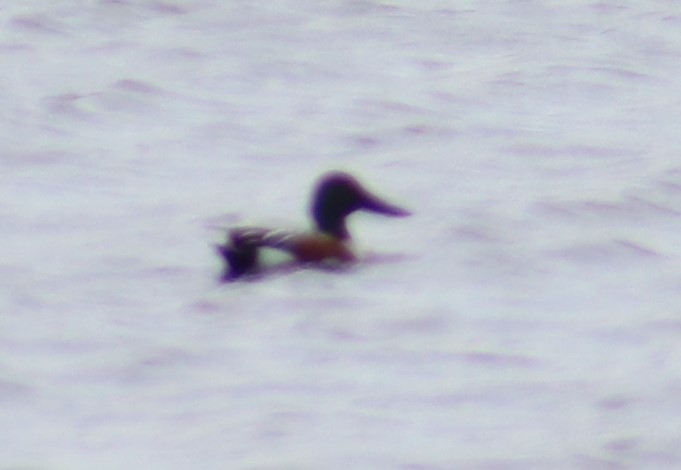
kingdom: Animalia
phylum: Chordata
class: Aves
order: Anseriformes
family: Anatidae
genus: Spatula
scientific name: Spatula clypeata
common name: Northern shoveler
